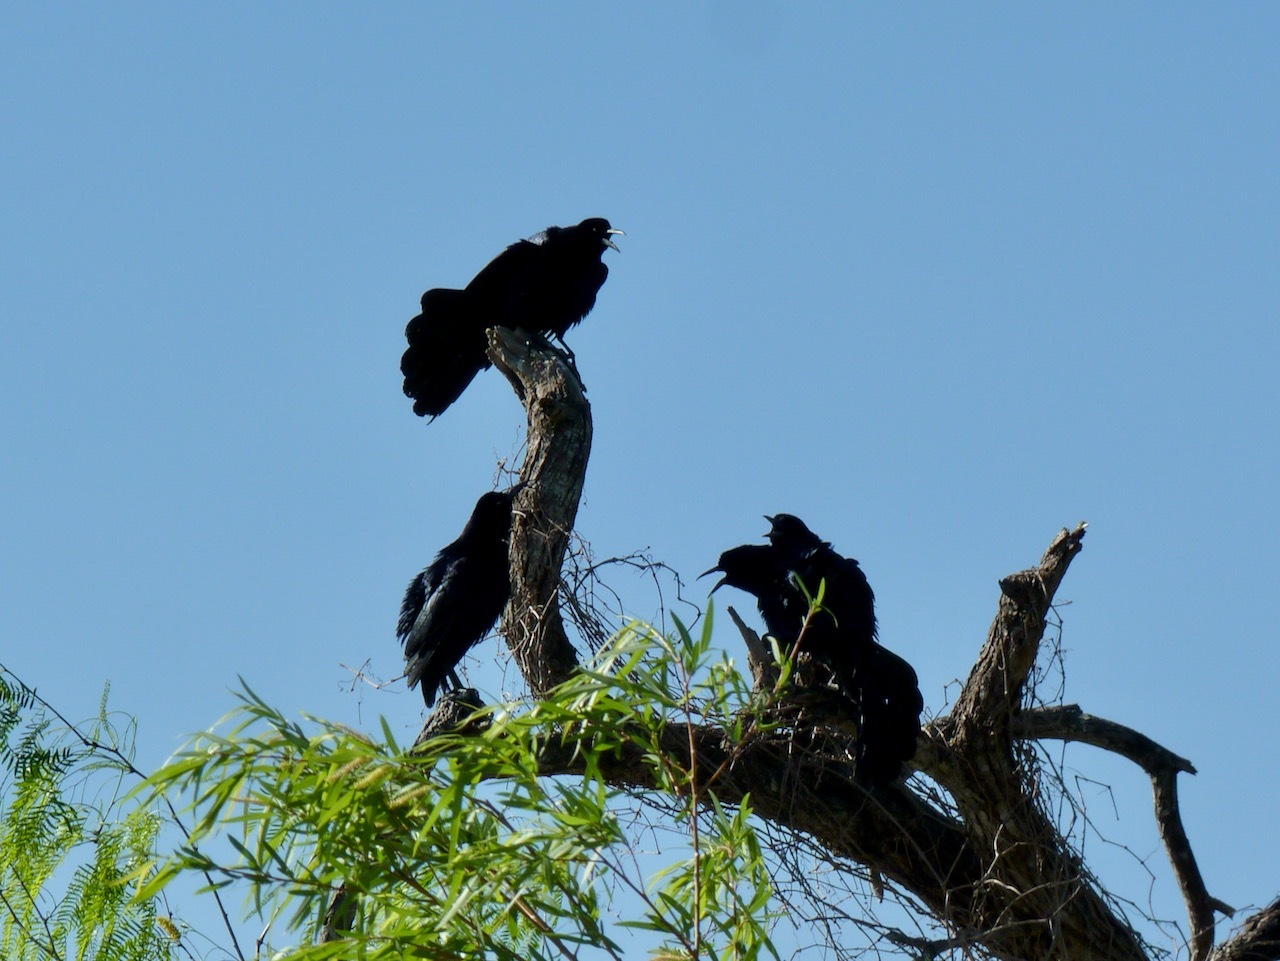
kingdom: Animalia
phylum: Chordata
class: Aves
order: Passeriformes
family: Icteridae
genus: Quiscalus
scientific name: Quiscalus mexicanus
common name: Great-tailed grackle
